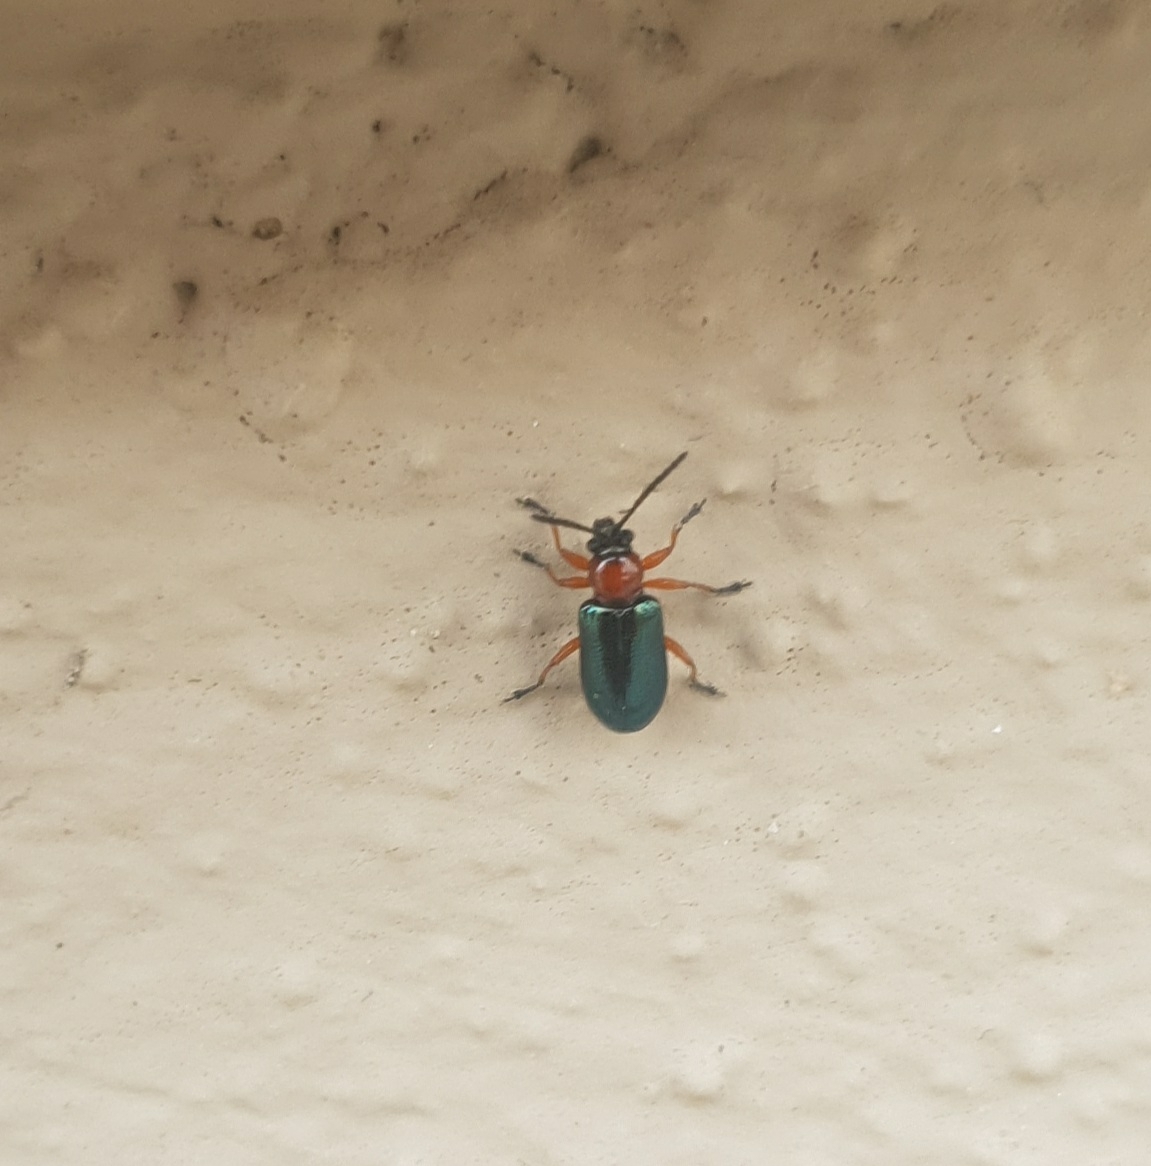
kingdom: Animalia
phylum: Arthropoda
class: Insecta
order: Coleoptera
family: Chrysomelidae
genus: Oulema
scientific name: Oulema
